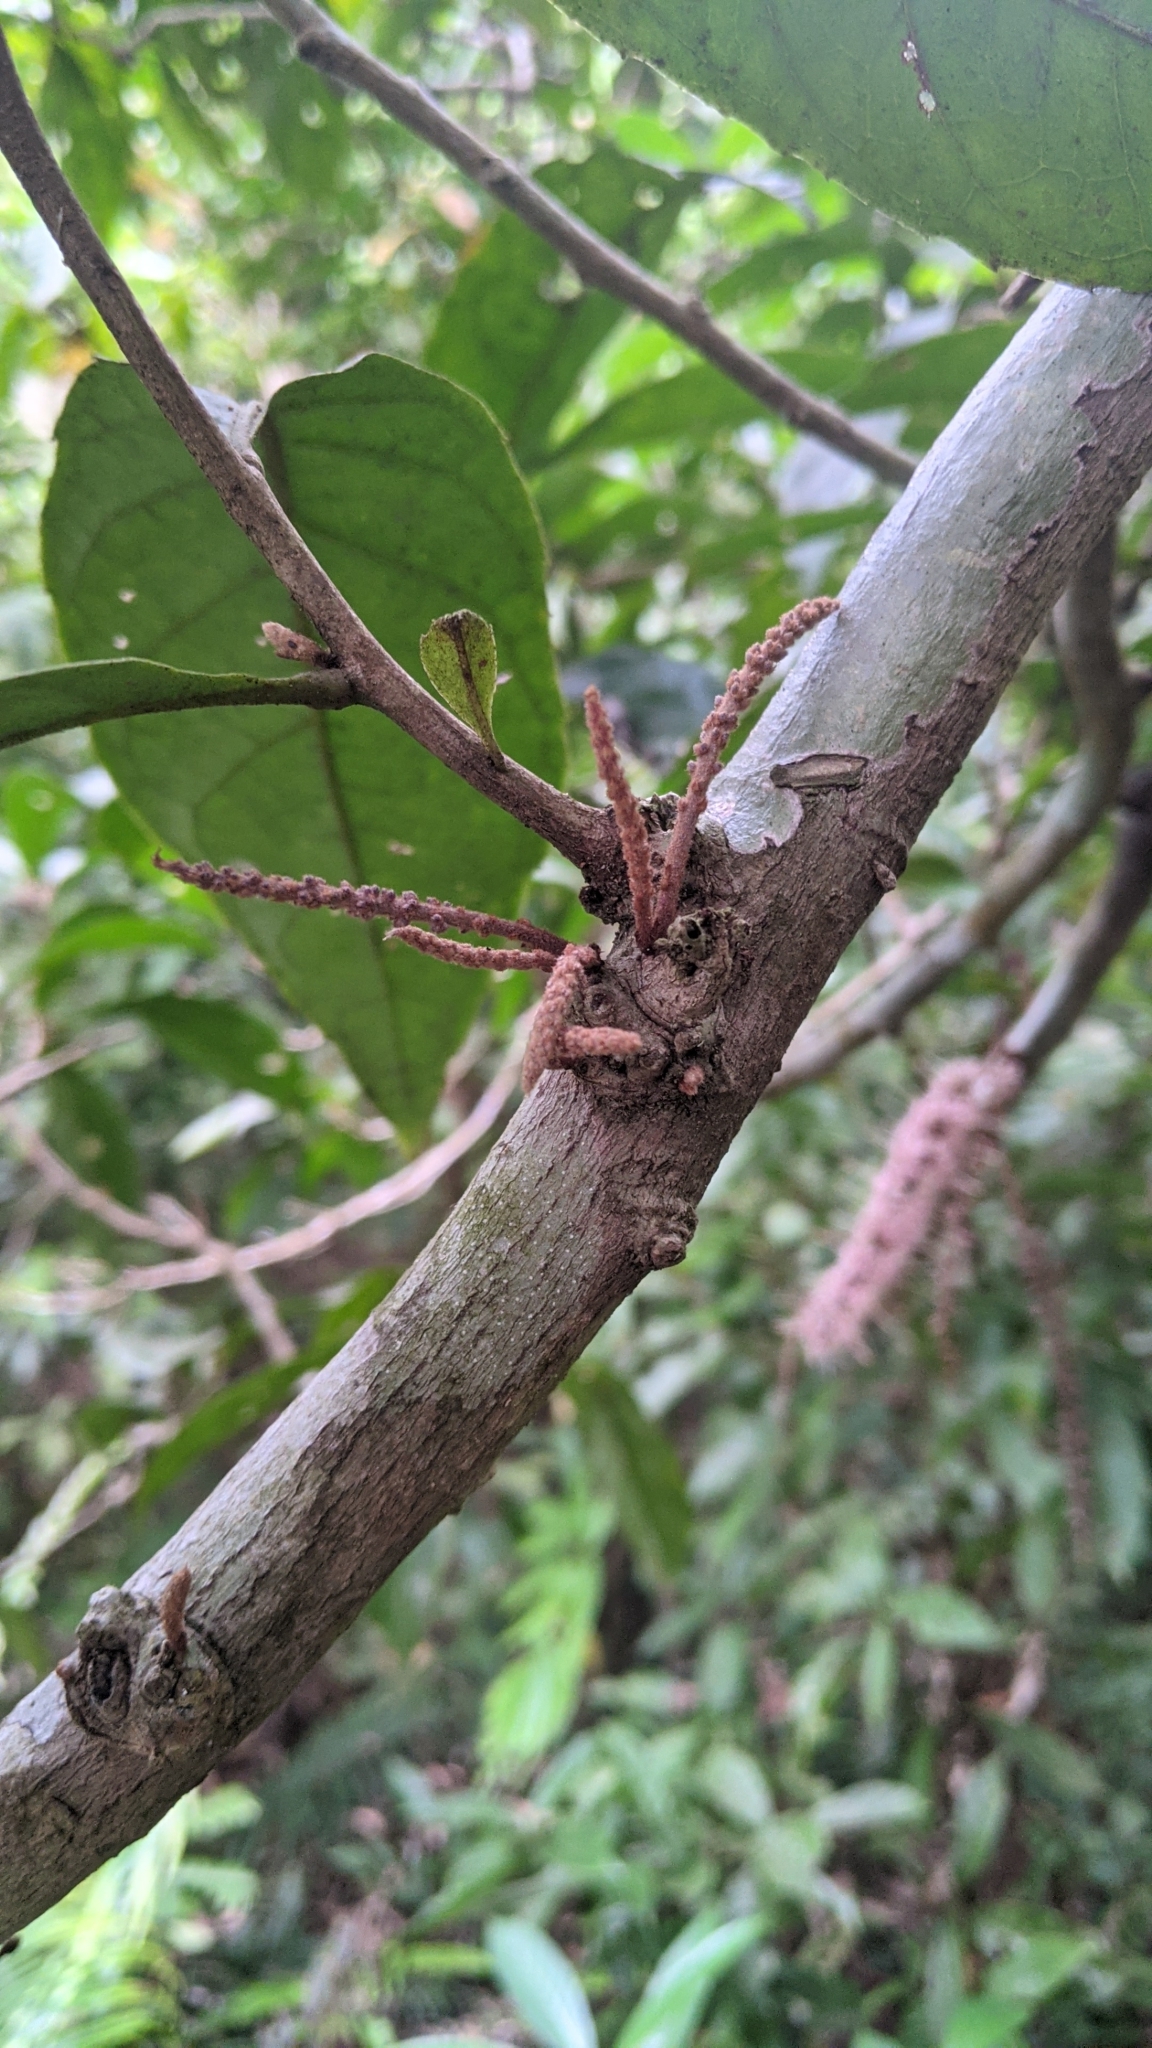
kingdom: Plantae
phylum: Tracheophyta
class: Magnoliopsida
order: Proteales
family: Proteaceae
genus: Helicia
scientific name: Helicia formosana
